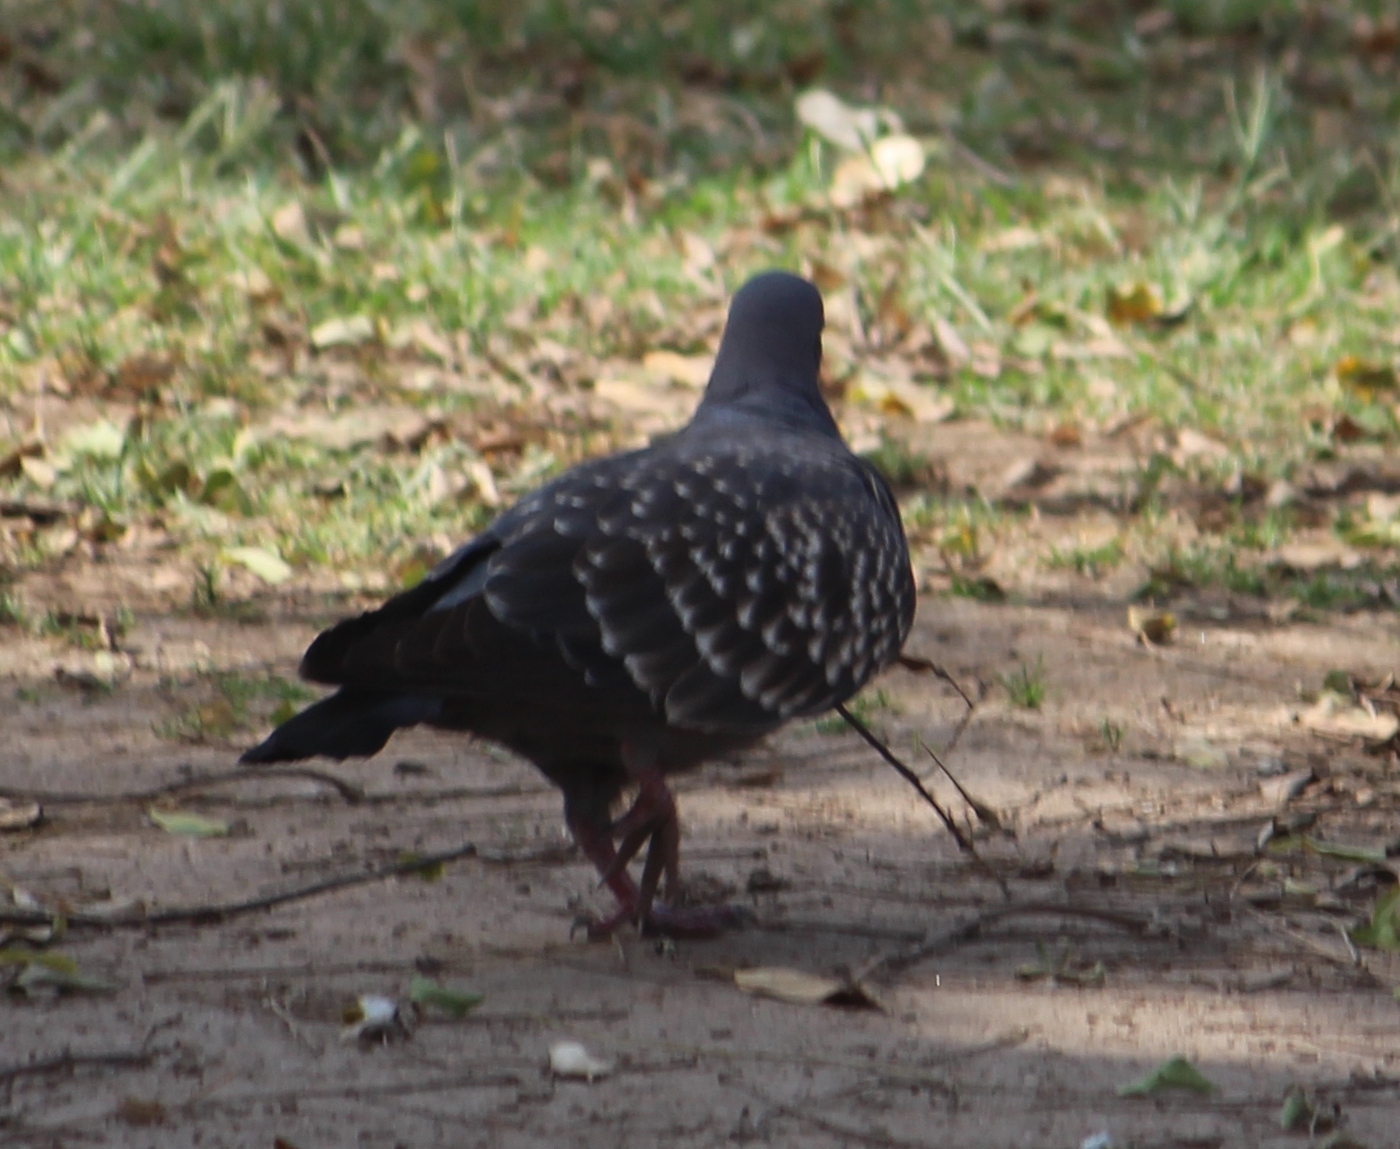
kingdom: Animalia
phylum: Chordata
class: Aves
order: Columbiformes
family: Columbidae
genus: Patagioenas
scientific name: Patagioenas maculosa
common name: Spot-winged pigeon
